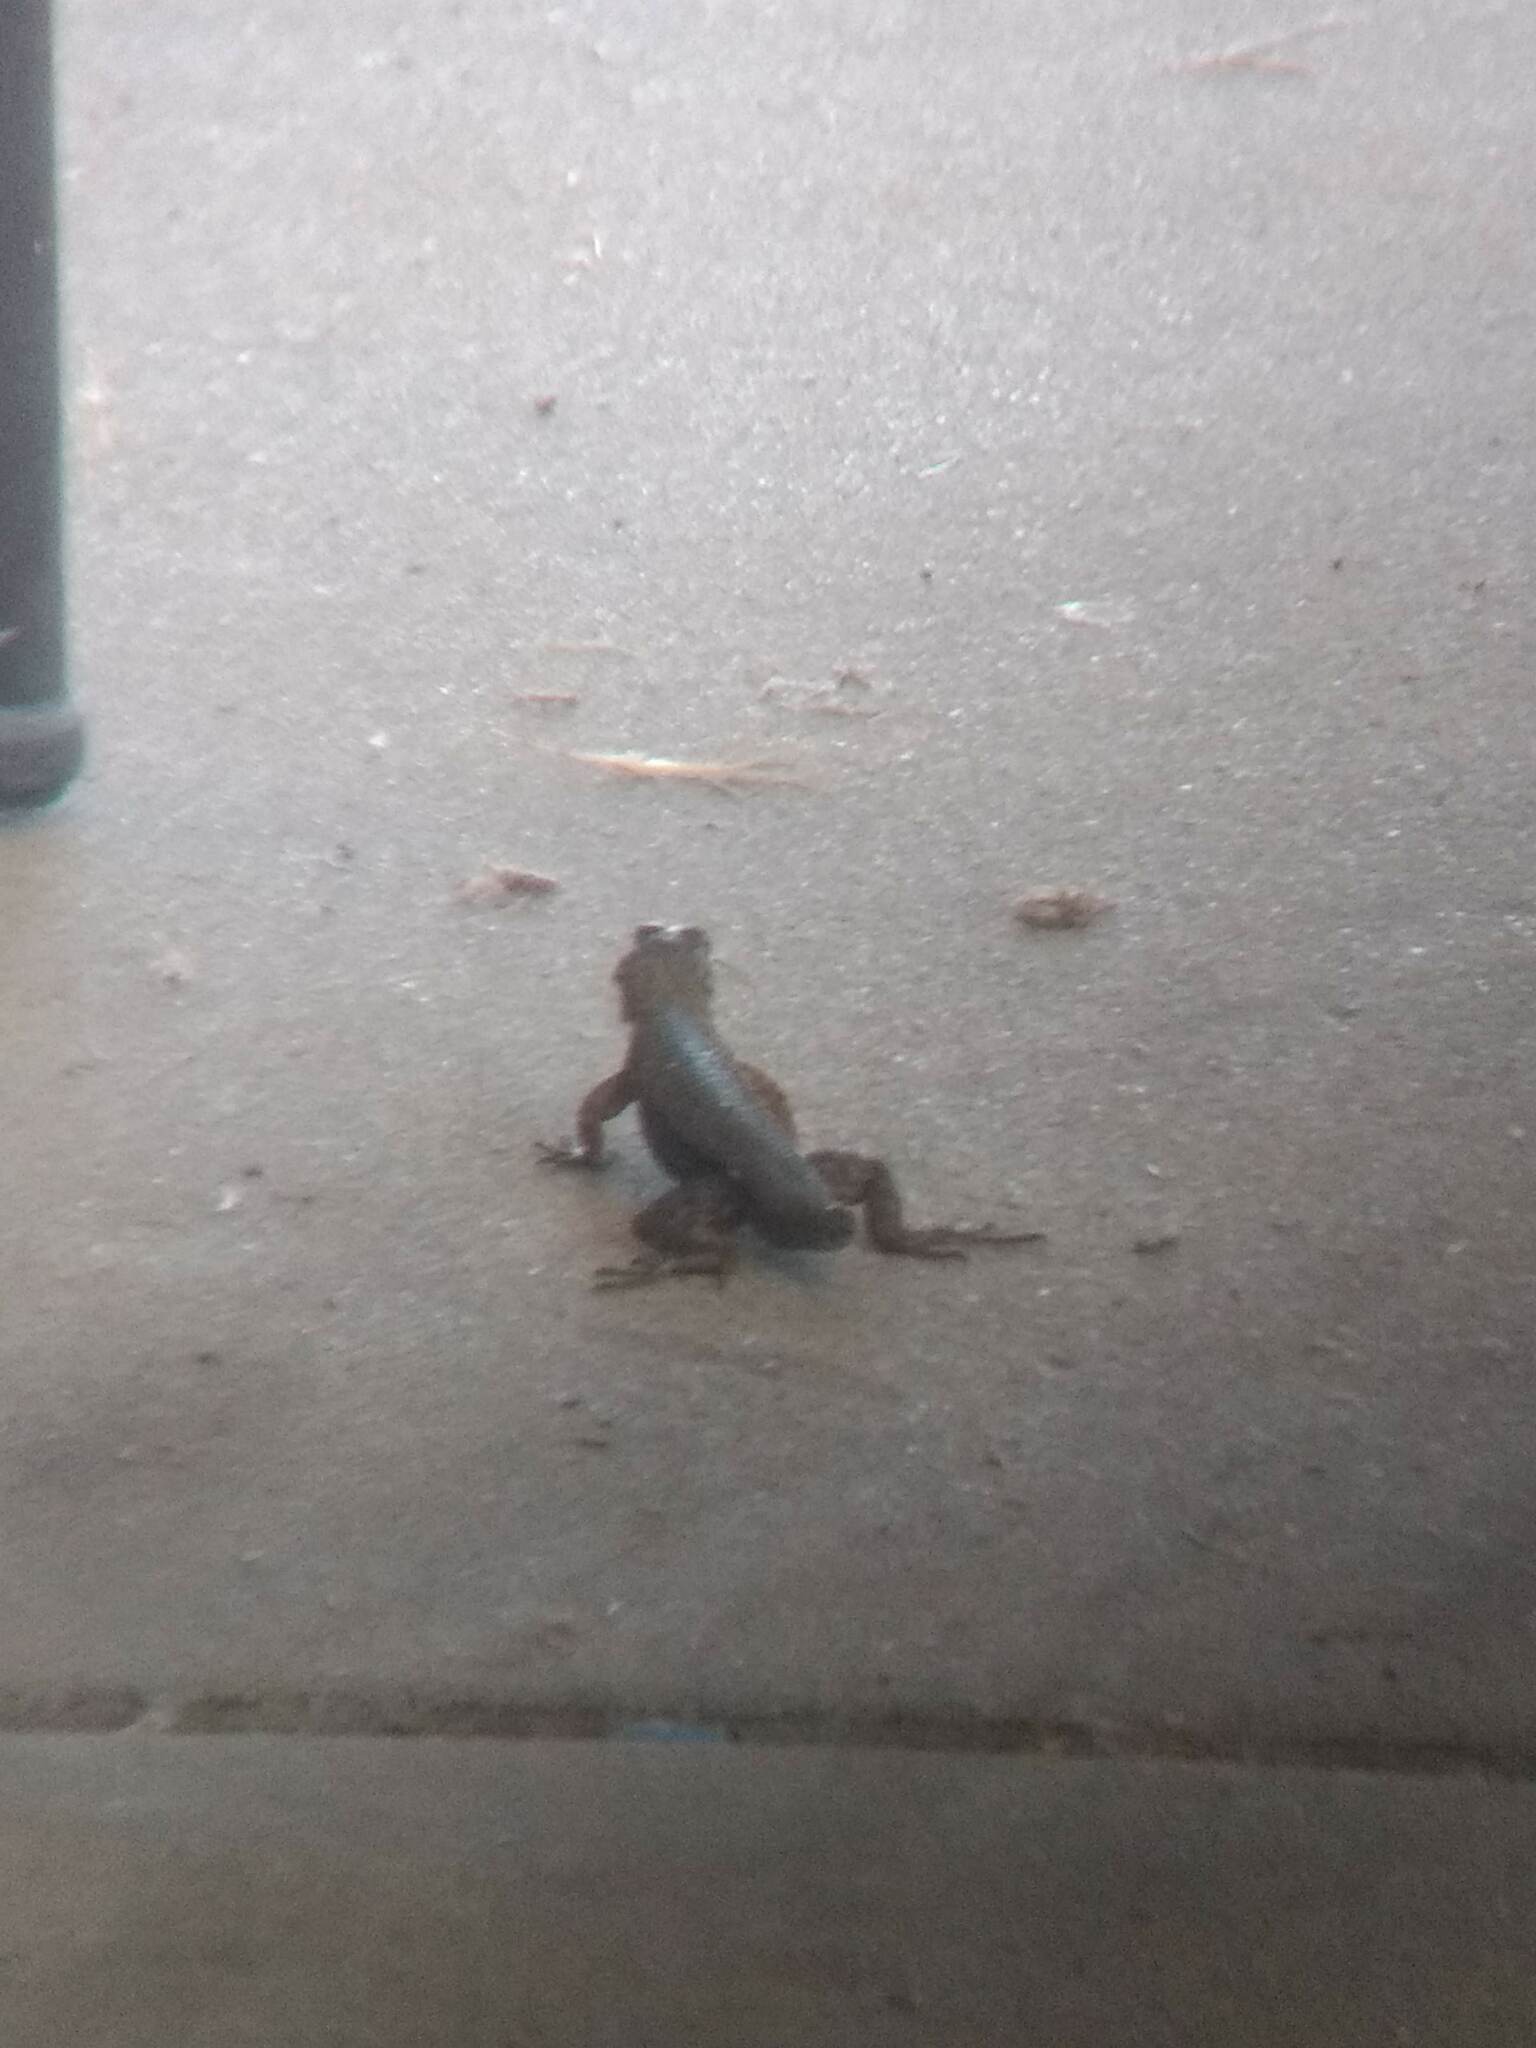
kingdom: Animalia
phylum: Chordata
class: Squamata
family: Phrynosomatidae
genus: Sceloporus
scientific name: Sceloporus occidentalis
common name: Western fence lizard
